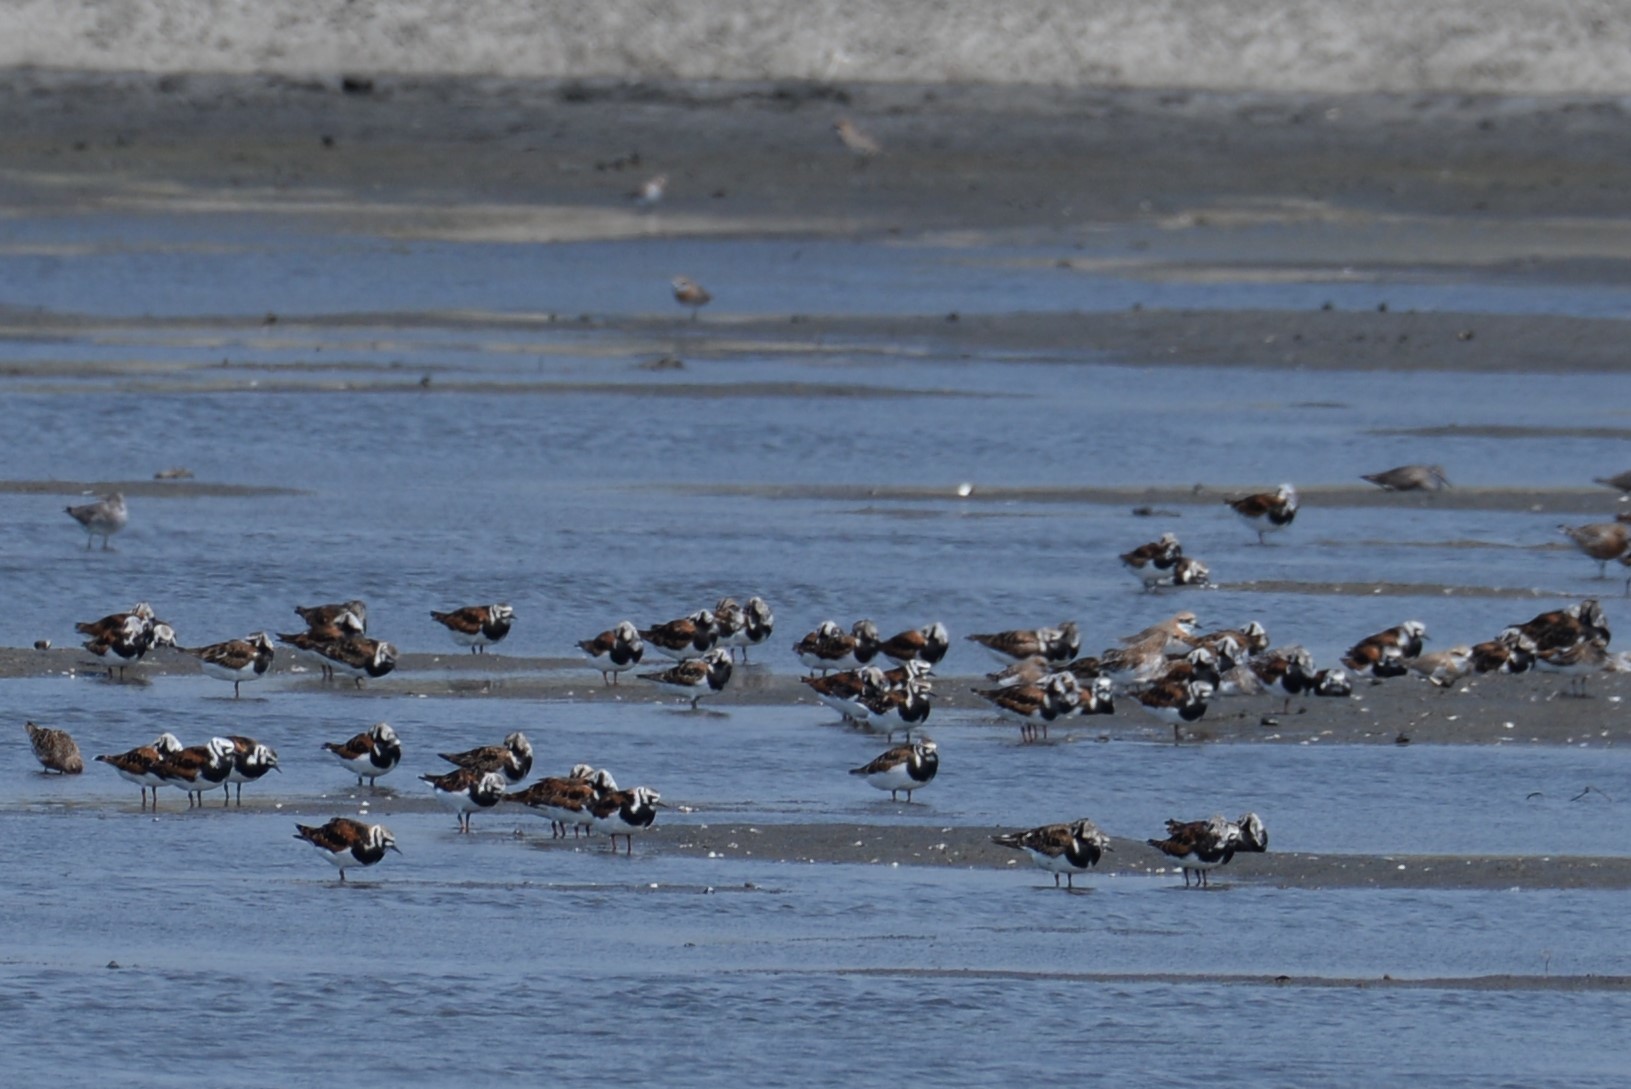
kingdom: Animalia
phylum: Chordata
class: Aves
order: Charadriiformes
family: Scolopacidae
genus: Arenaria
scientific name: Arenaria interpres
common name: Ruddy turnstone
